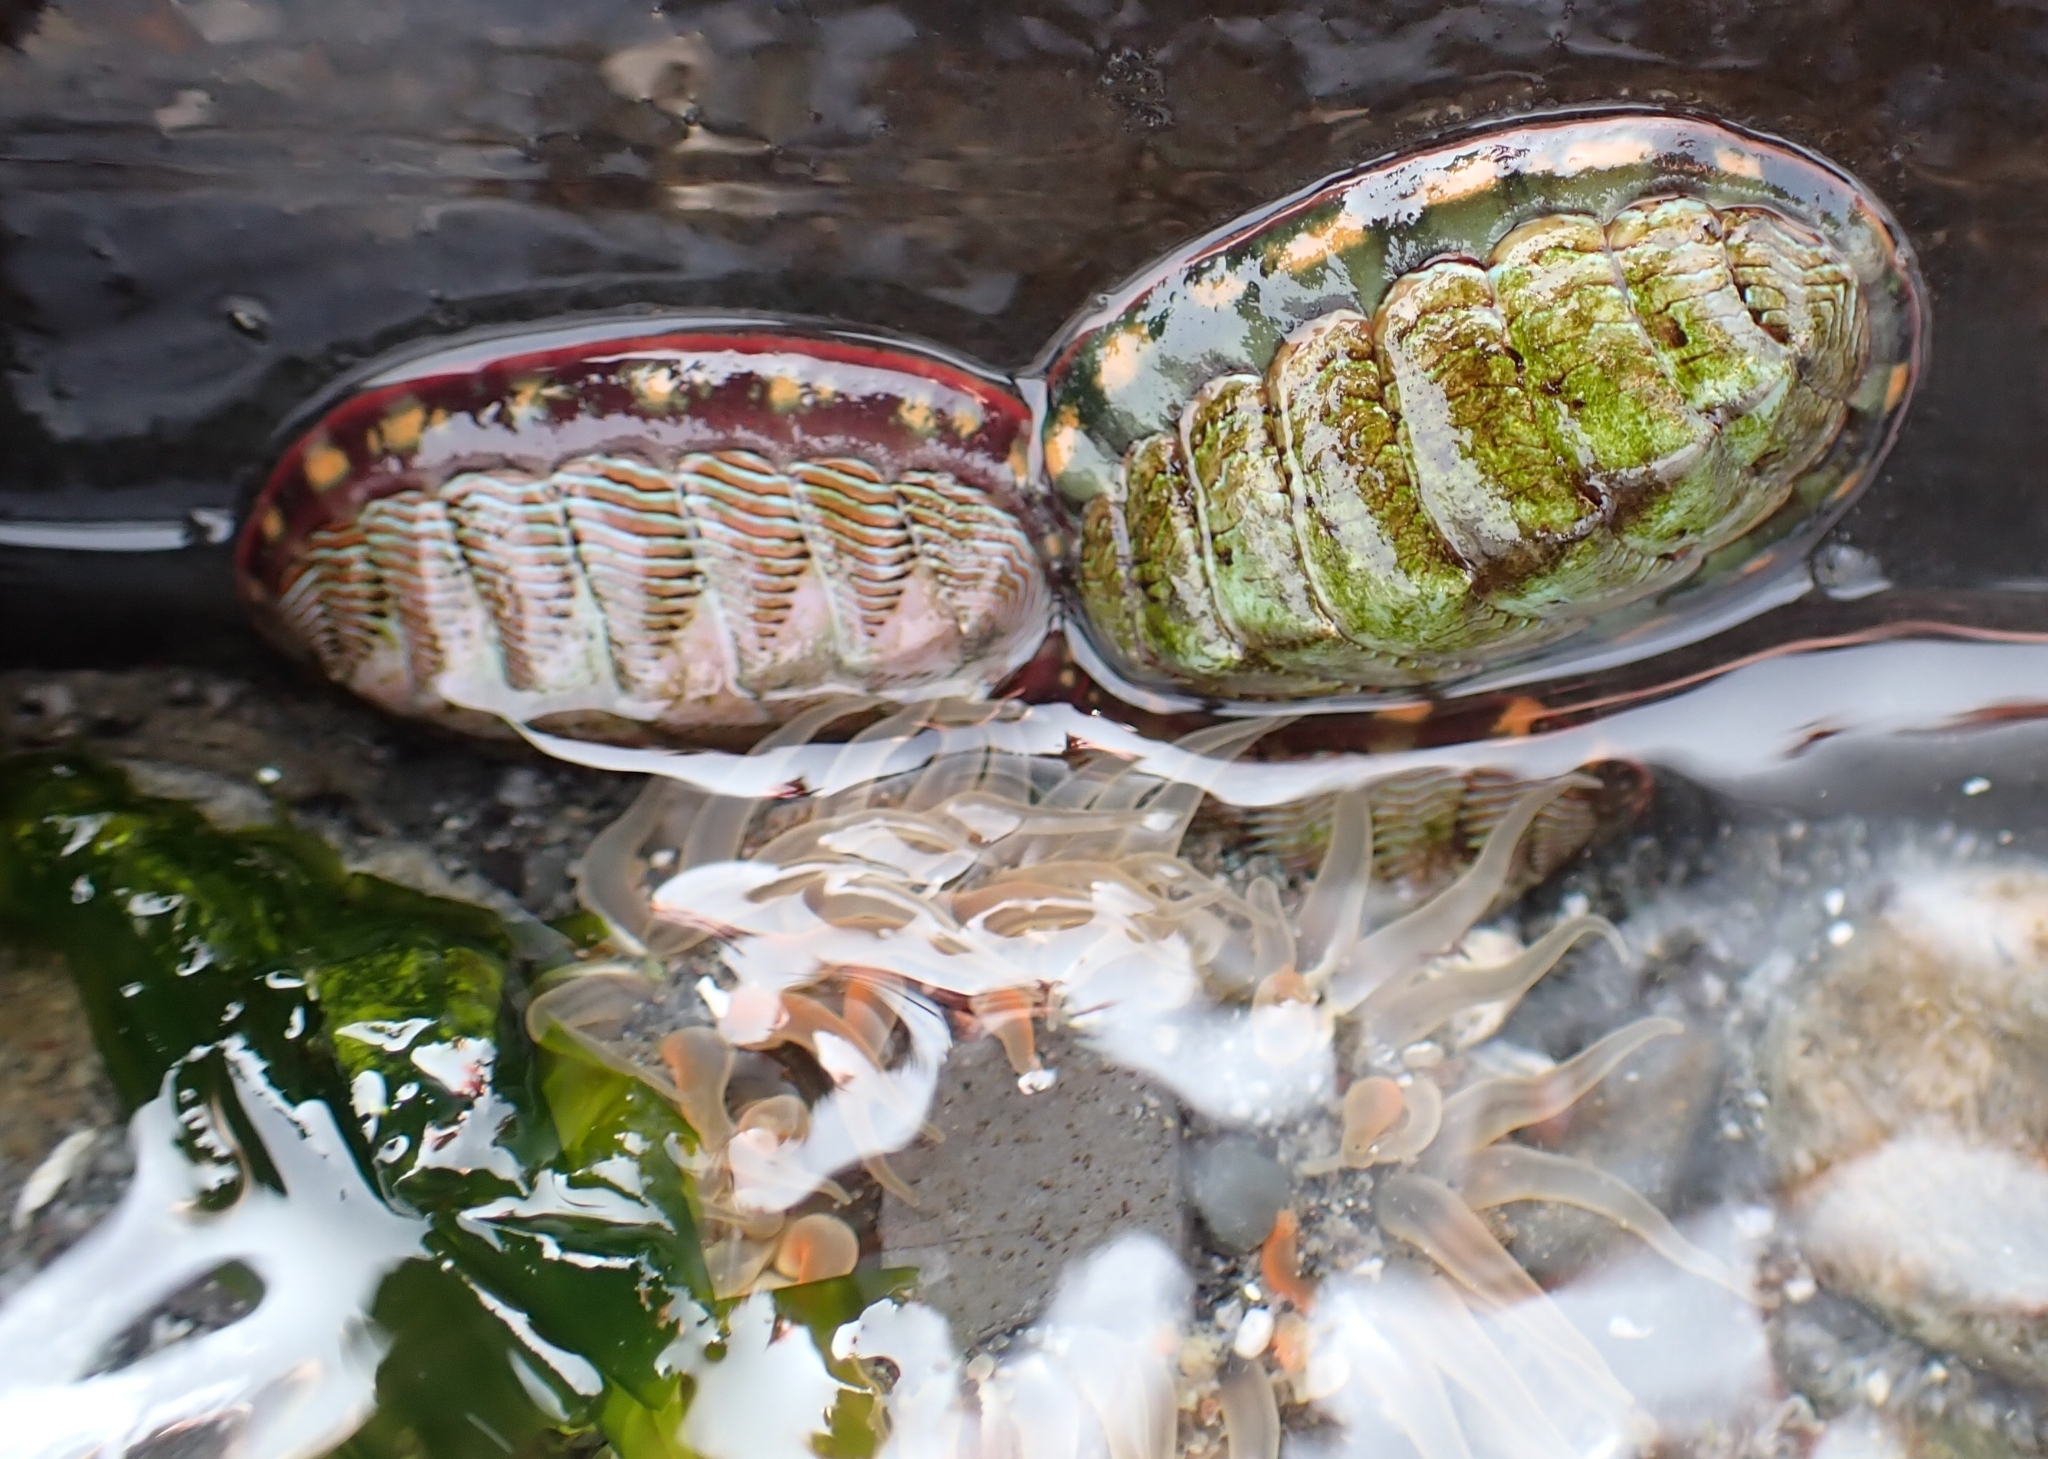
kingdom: Animalia
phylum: Mollusca
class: Polyplacophora
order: Chitonida
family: Tonicellidae
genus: Tonicella
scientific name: Tonicella lineata
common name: Lined chiton
